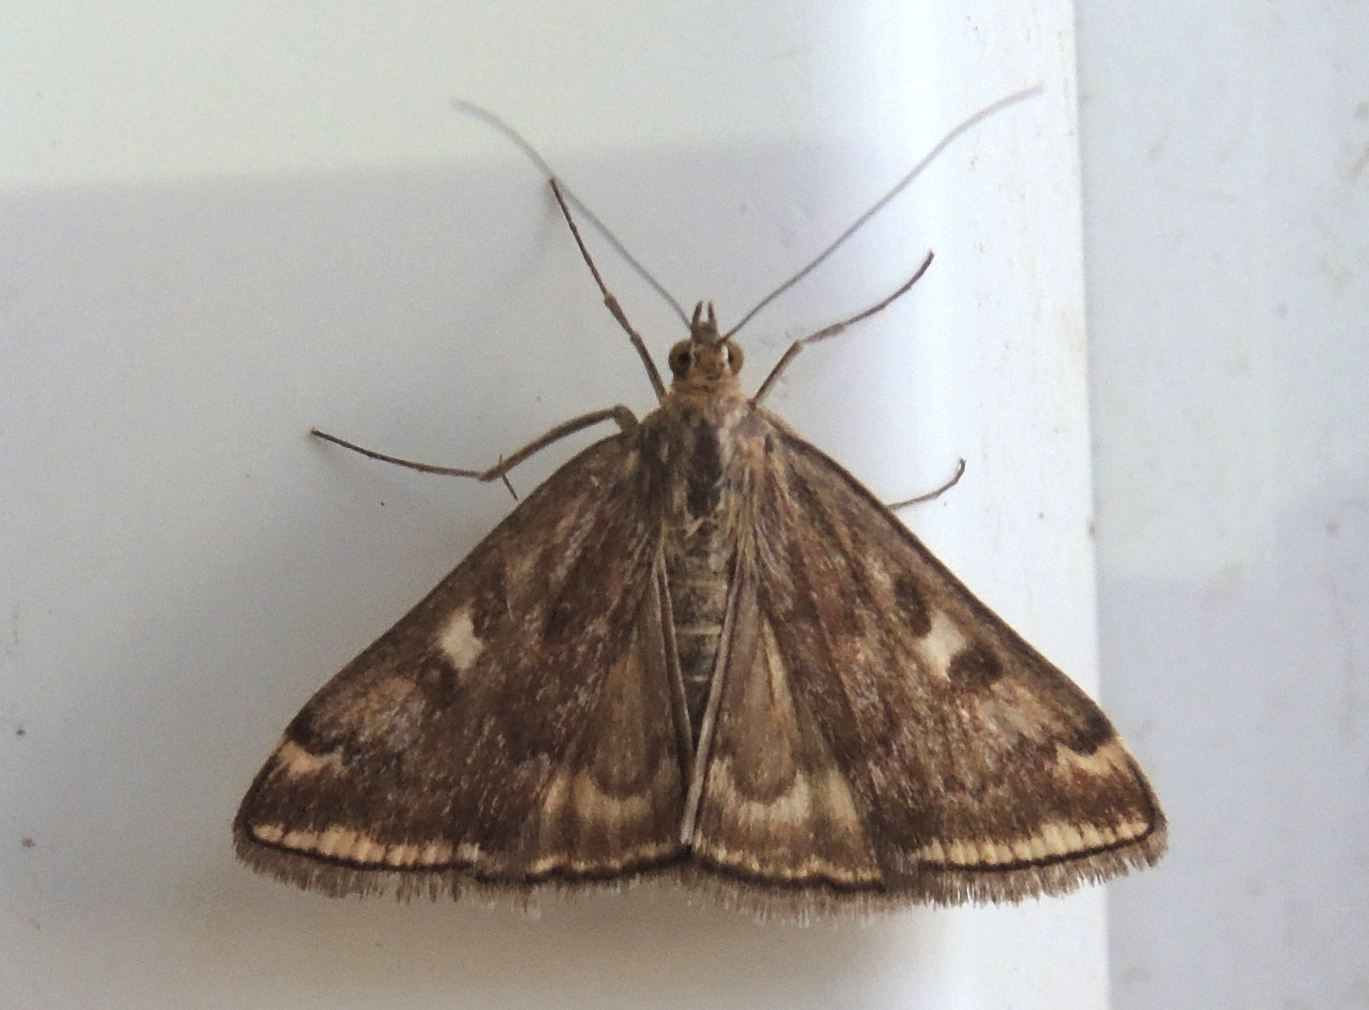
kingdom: Animalia
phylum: Arthropoda
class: Insecta
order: Lepidoptera
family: Crambidae
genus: Loxostege
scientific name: Loxostege sticticalis
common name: Crambid moth
